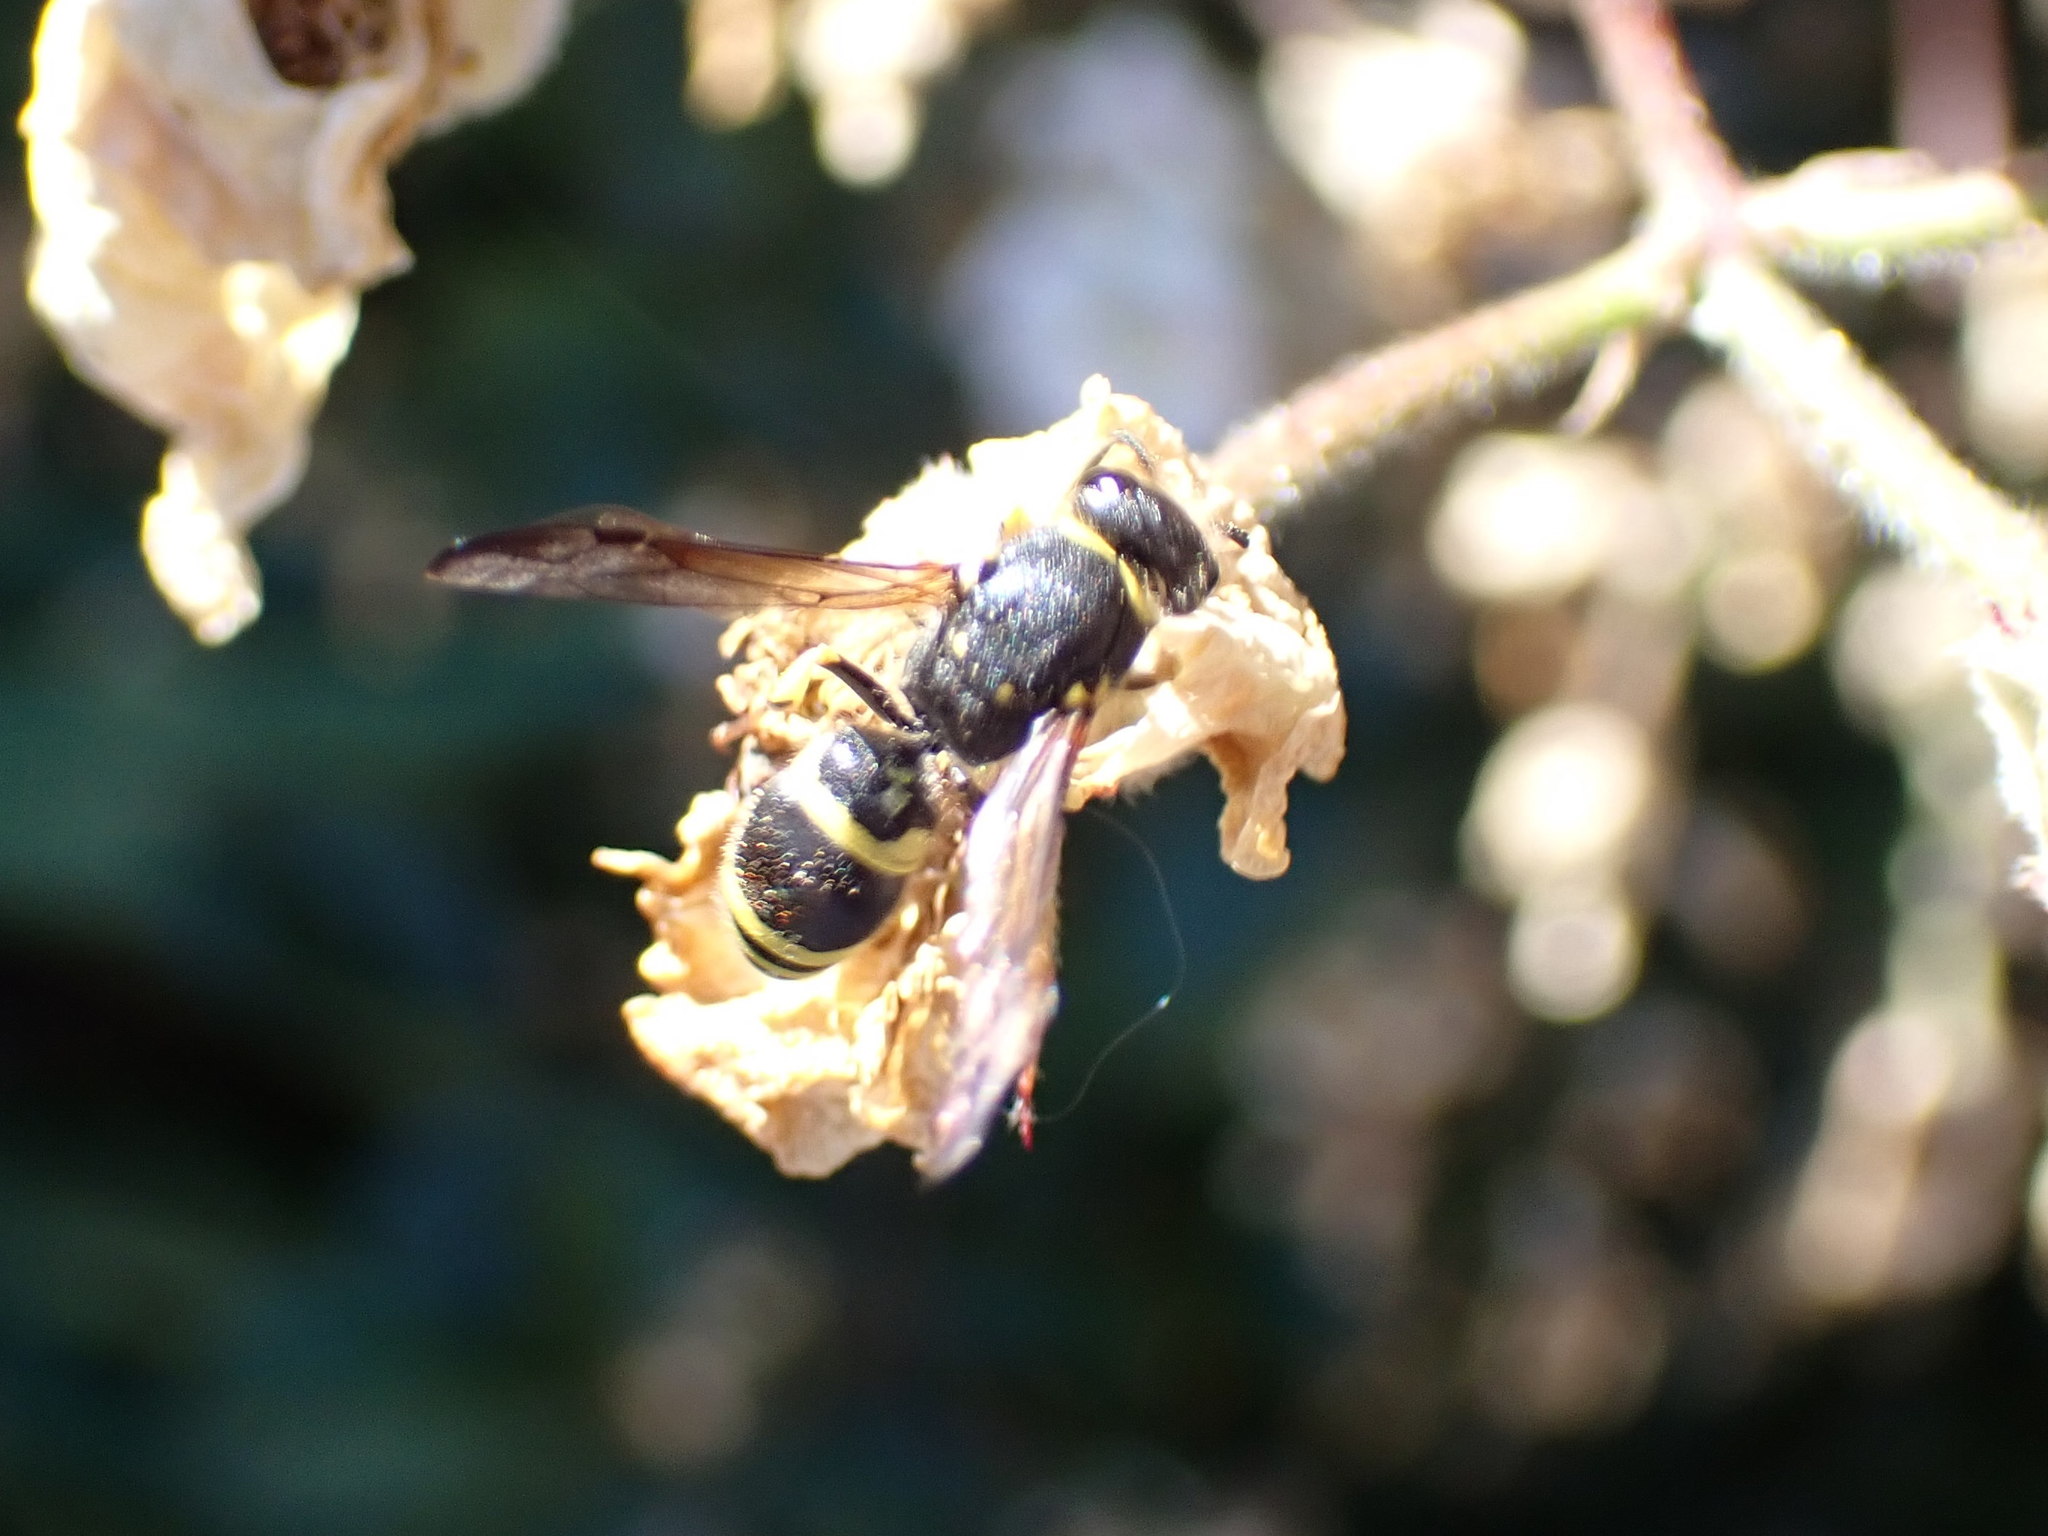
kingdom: Animalia
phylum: Arthropoda
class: Insecta
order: Hymenoptera
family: Vespidae
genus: Ancistrocerus
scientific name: Ancistrocerus gazella
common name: European tube wasp
